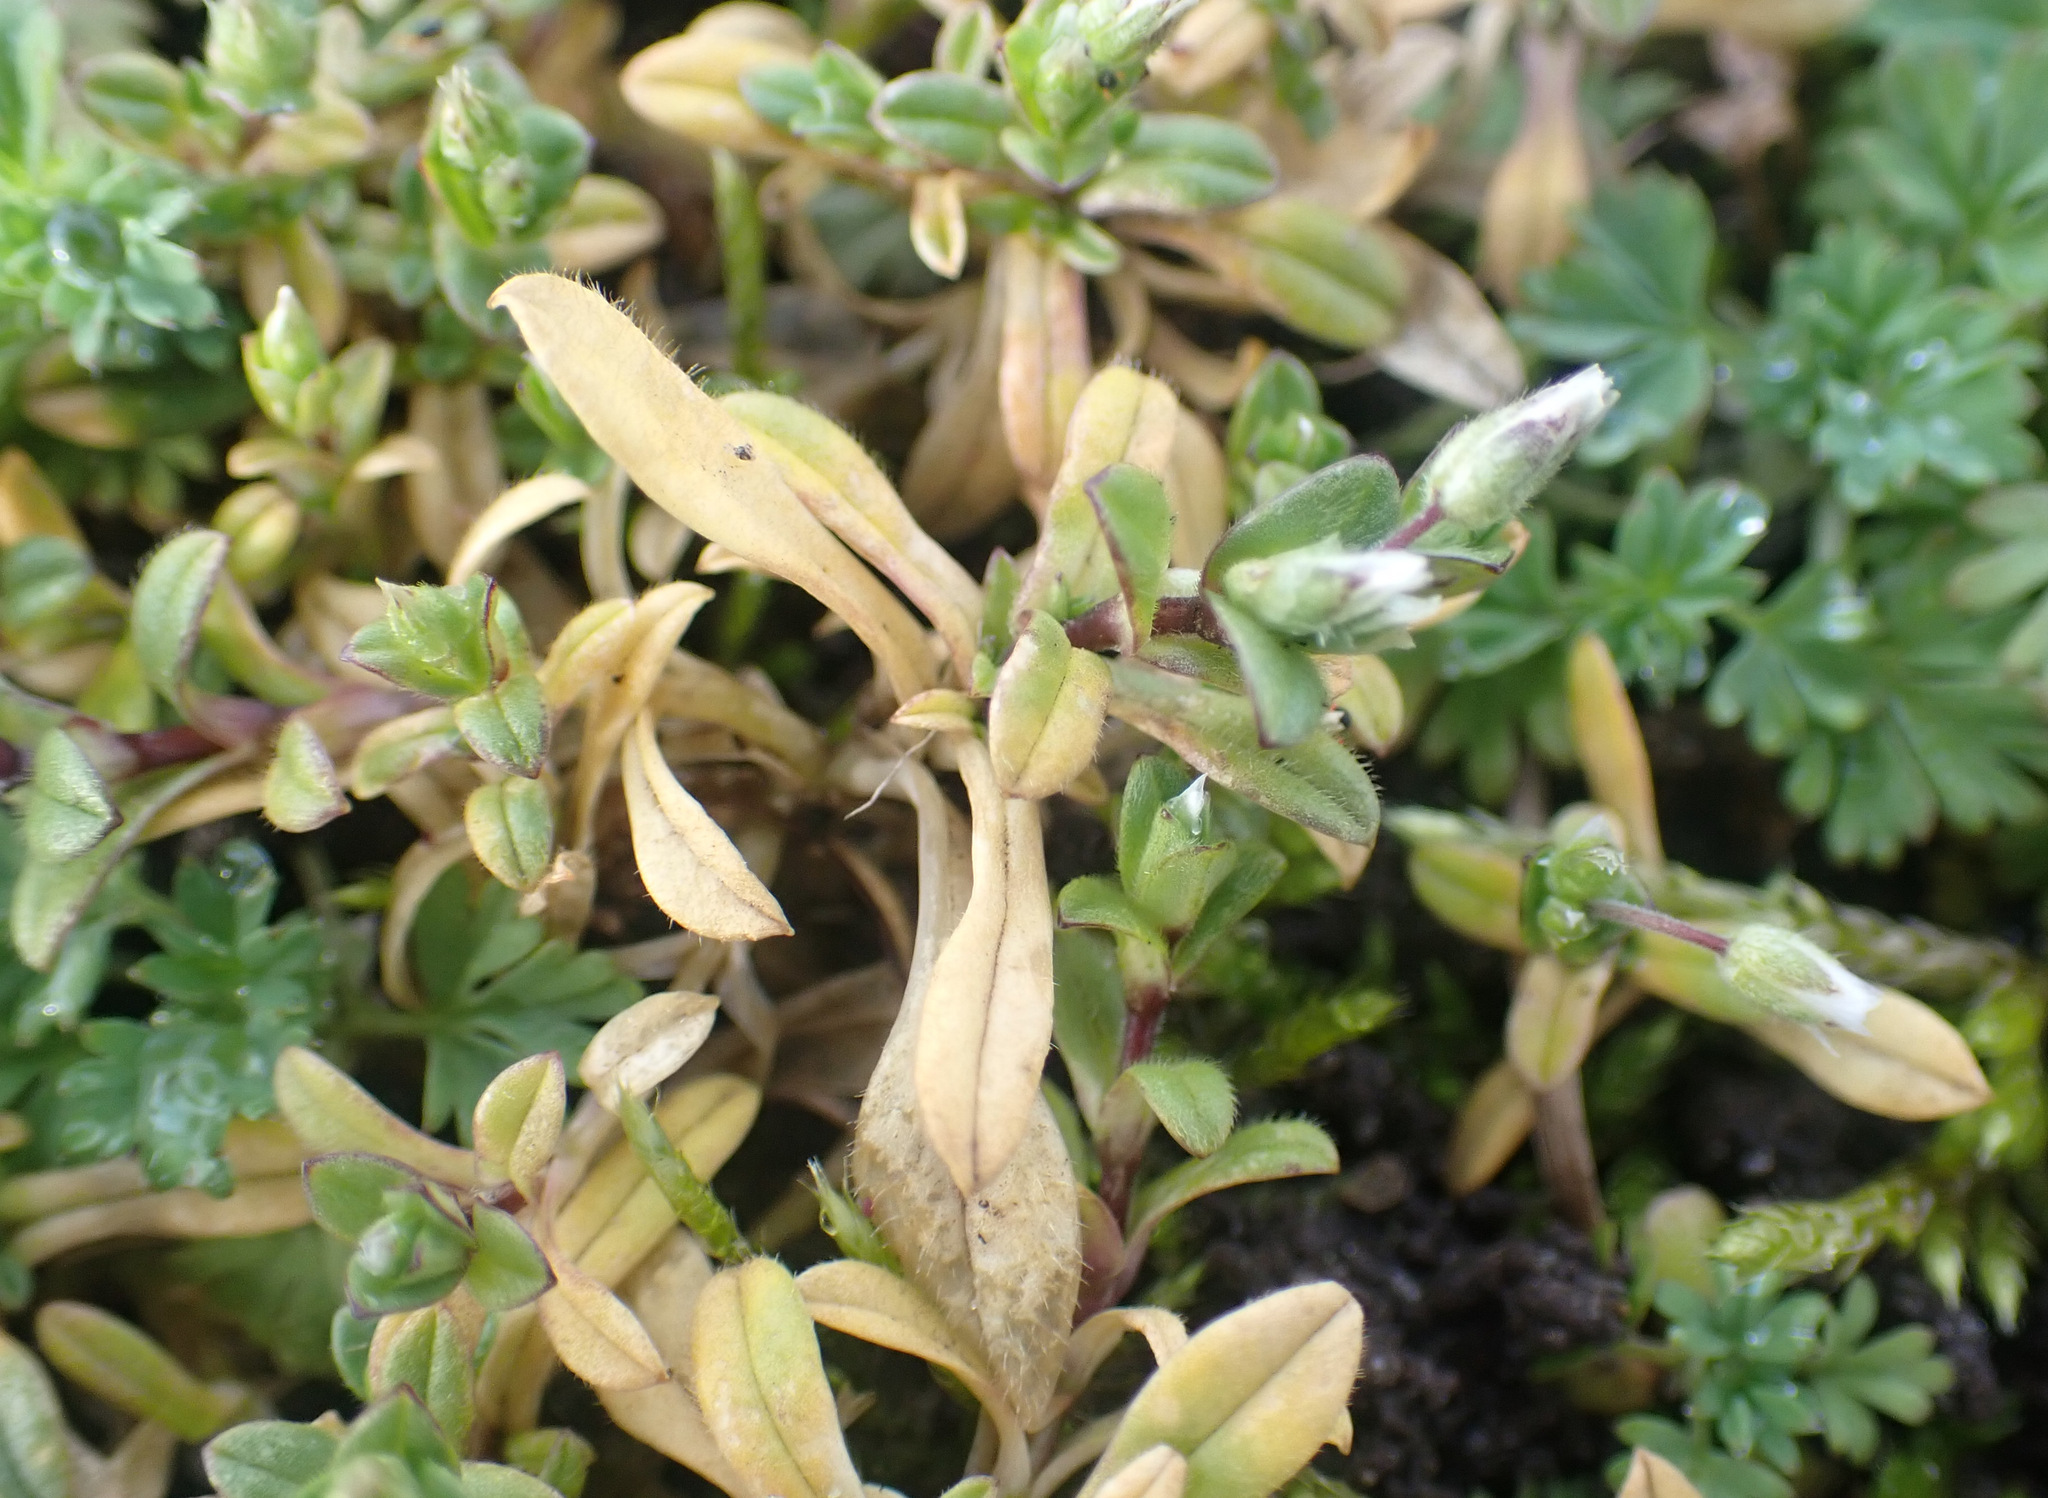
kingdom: Plantae
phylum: Tracheophyta
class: Magnoliopsida
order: Caryophyllales
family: Caryophyllaceae
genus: Cerastium
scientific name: Cerastium semidecandrum
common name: Little mouse-ear
